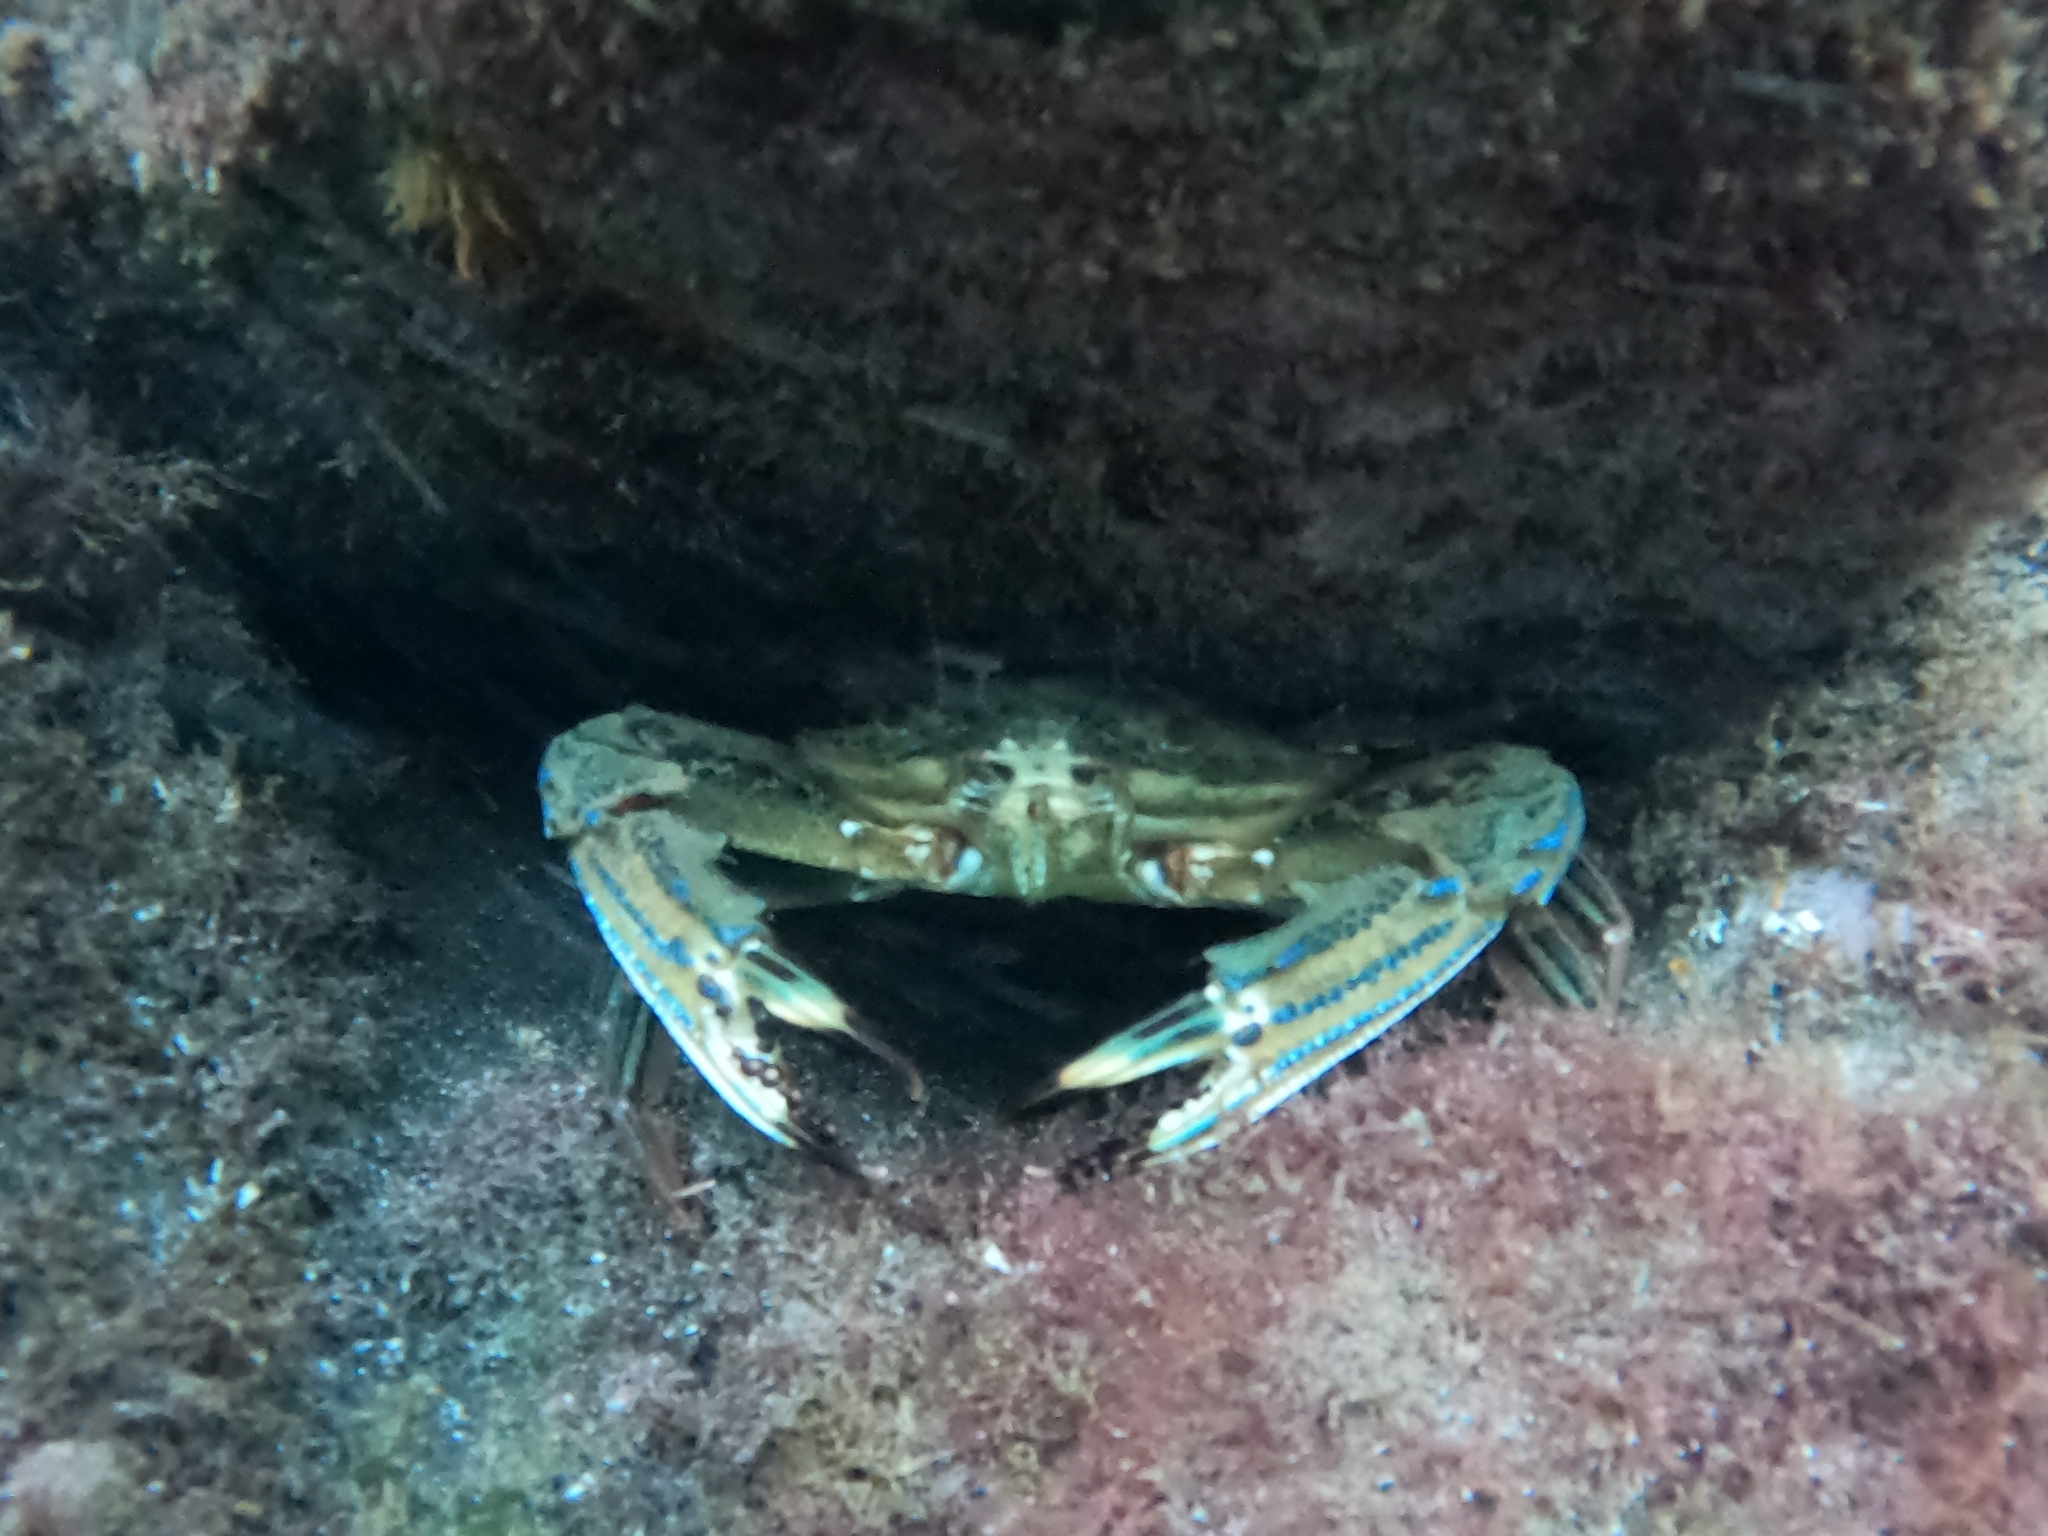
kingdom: Animalia
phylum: Arthropoda
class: Malacostraca
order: Decapoda
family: Portunidae
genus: Cronius
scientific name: Cronius ruber
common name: Red crab
